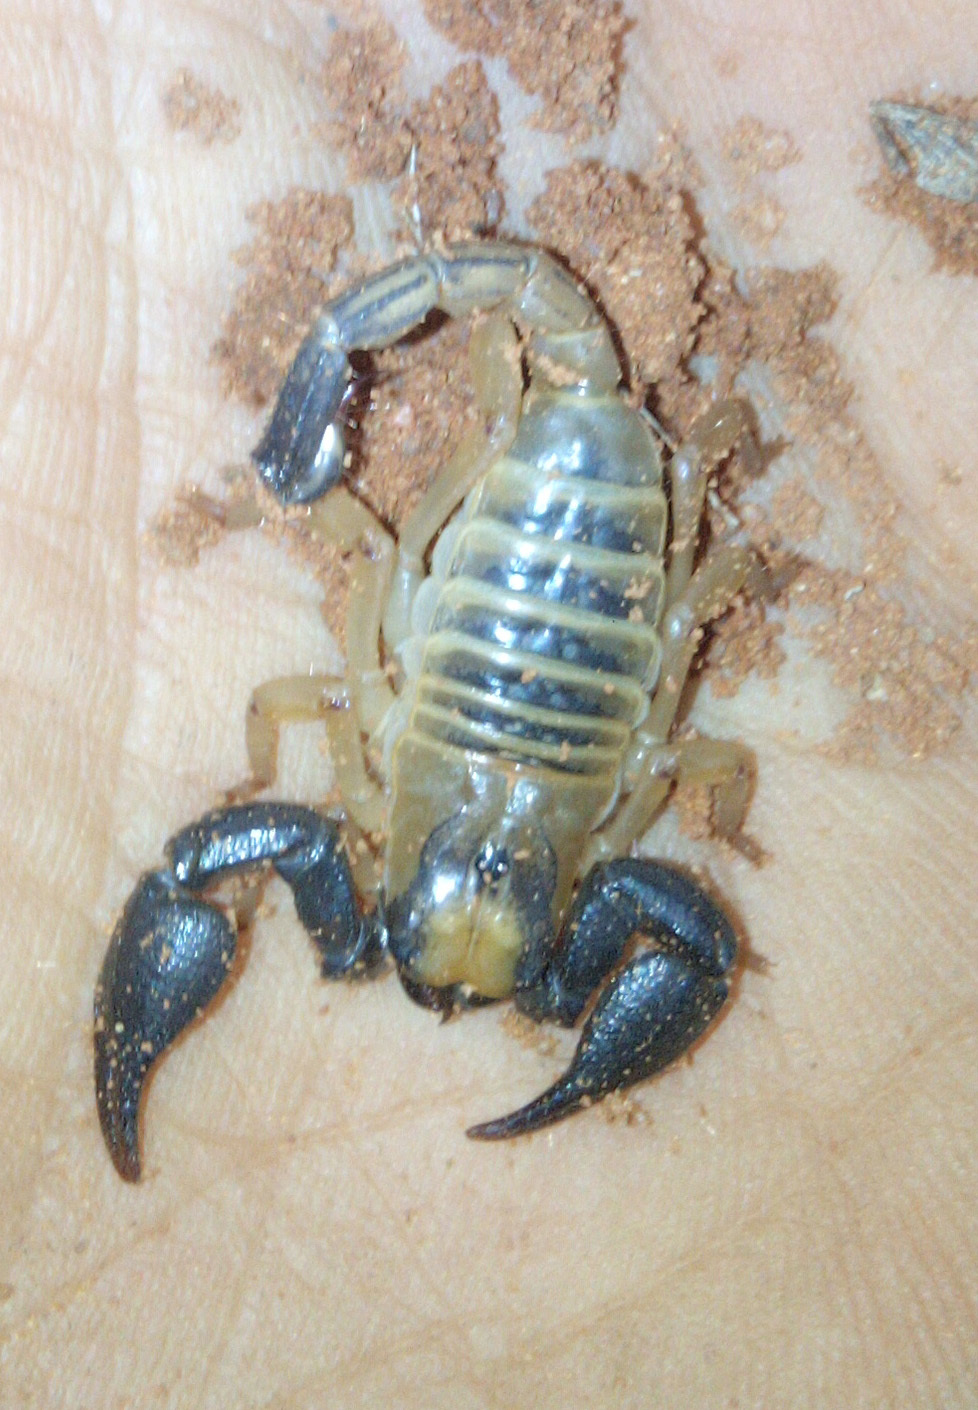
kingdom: Animalia
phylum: Arthropoda
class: Arachnida
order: Scorpiones
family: Scorpionidae
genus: Opistophthalmus
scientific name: Opistophthalmus fitzsimonsi
